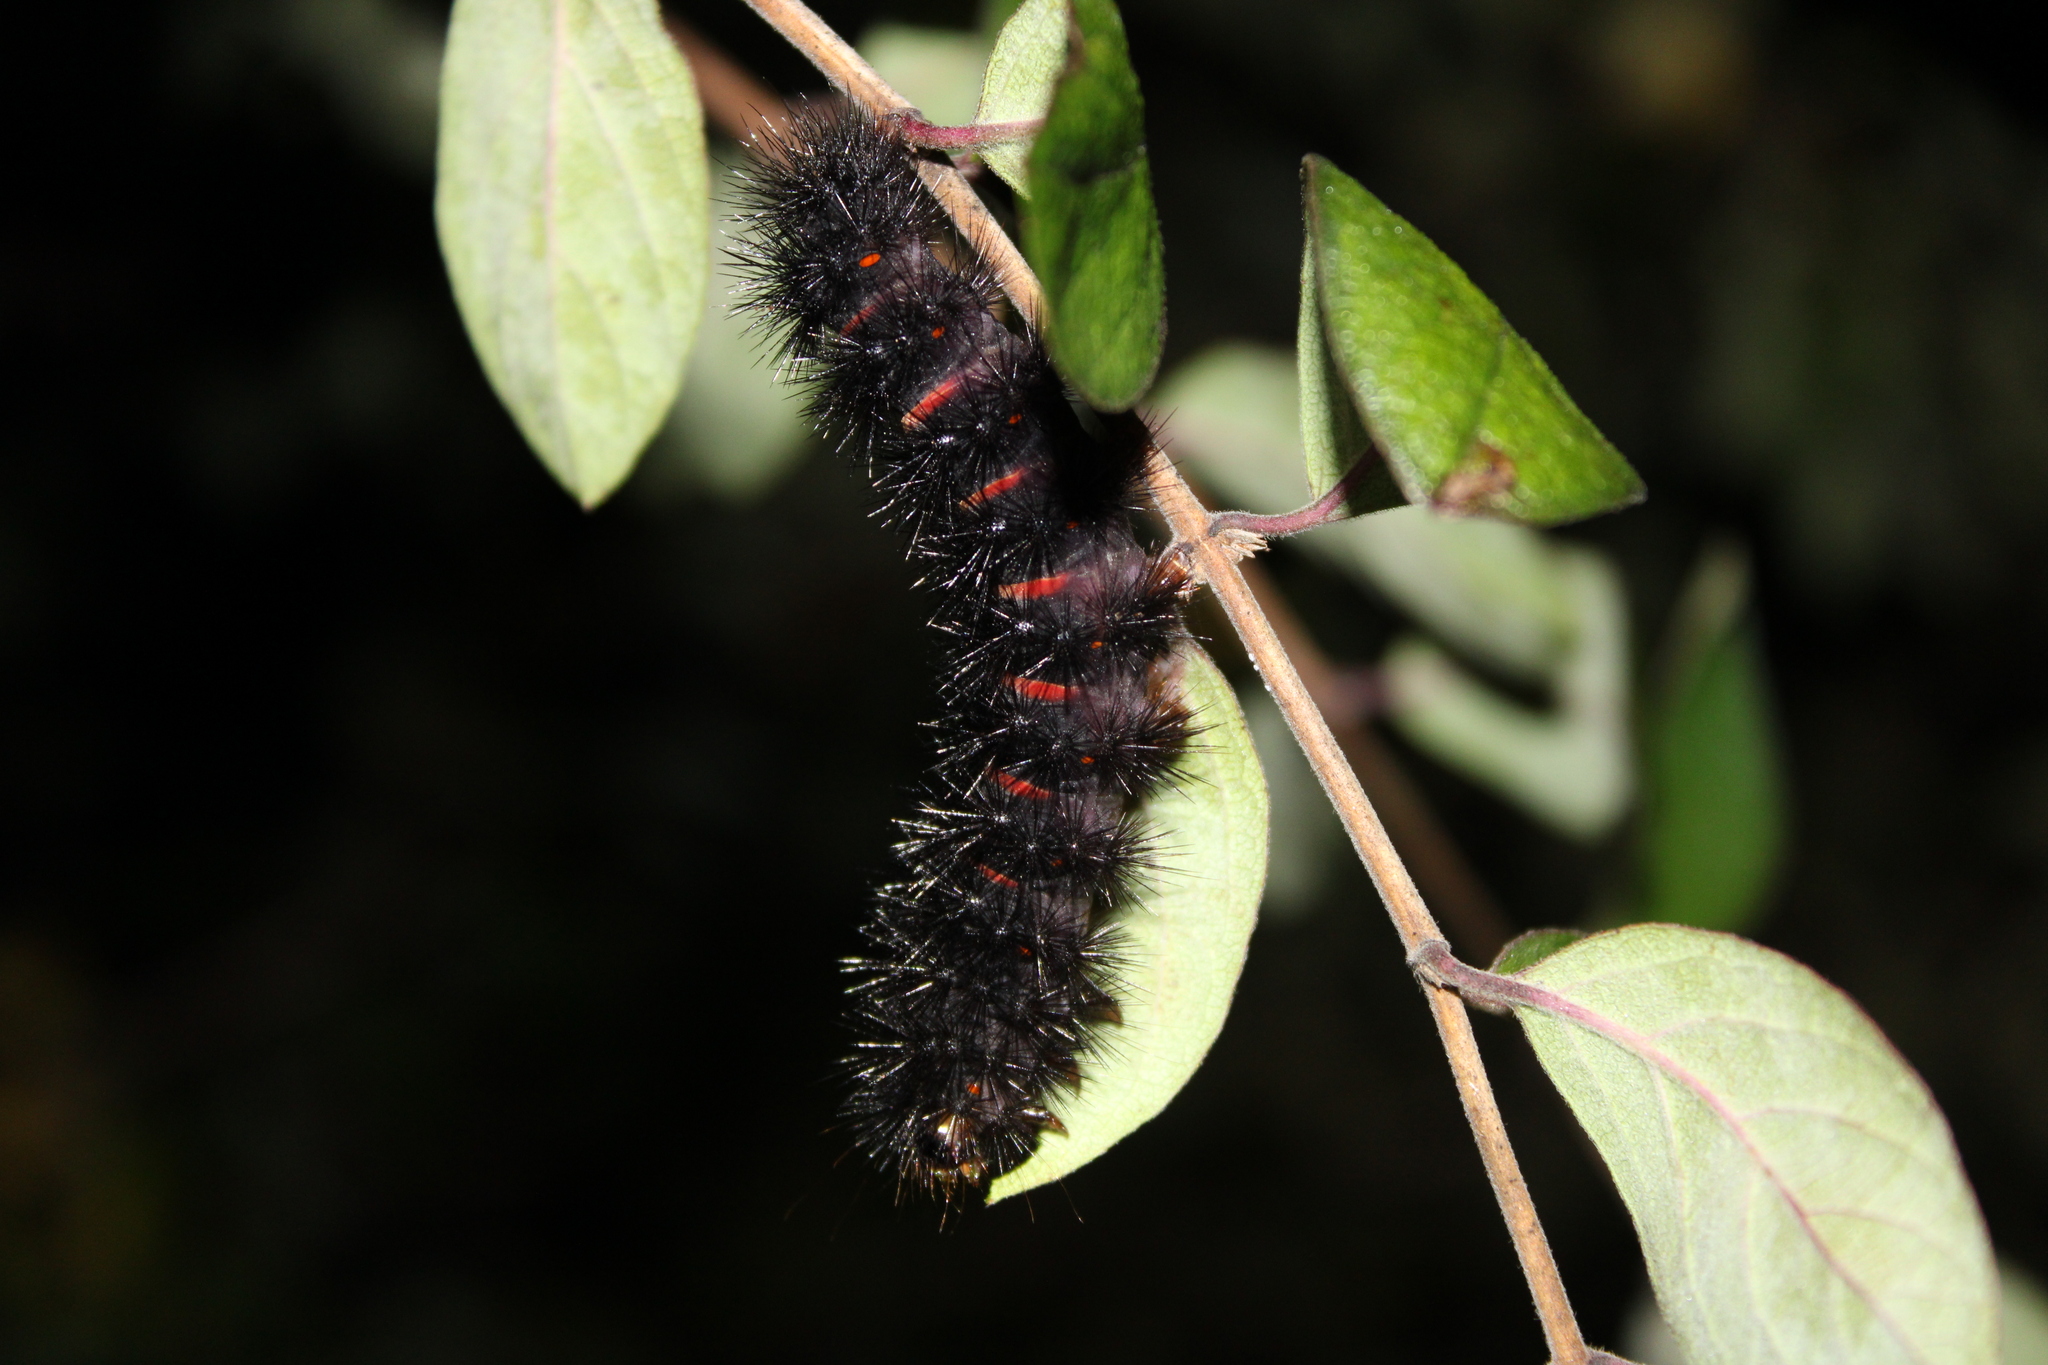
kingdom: Animalia
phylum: Arthropoda
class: Insecta
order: Lepidoptera
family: Erebidae
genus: Hypercompe
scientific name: Hypercompe scribonia
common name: Giant leopard moth
